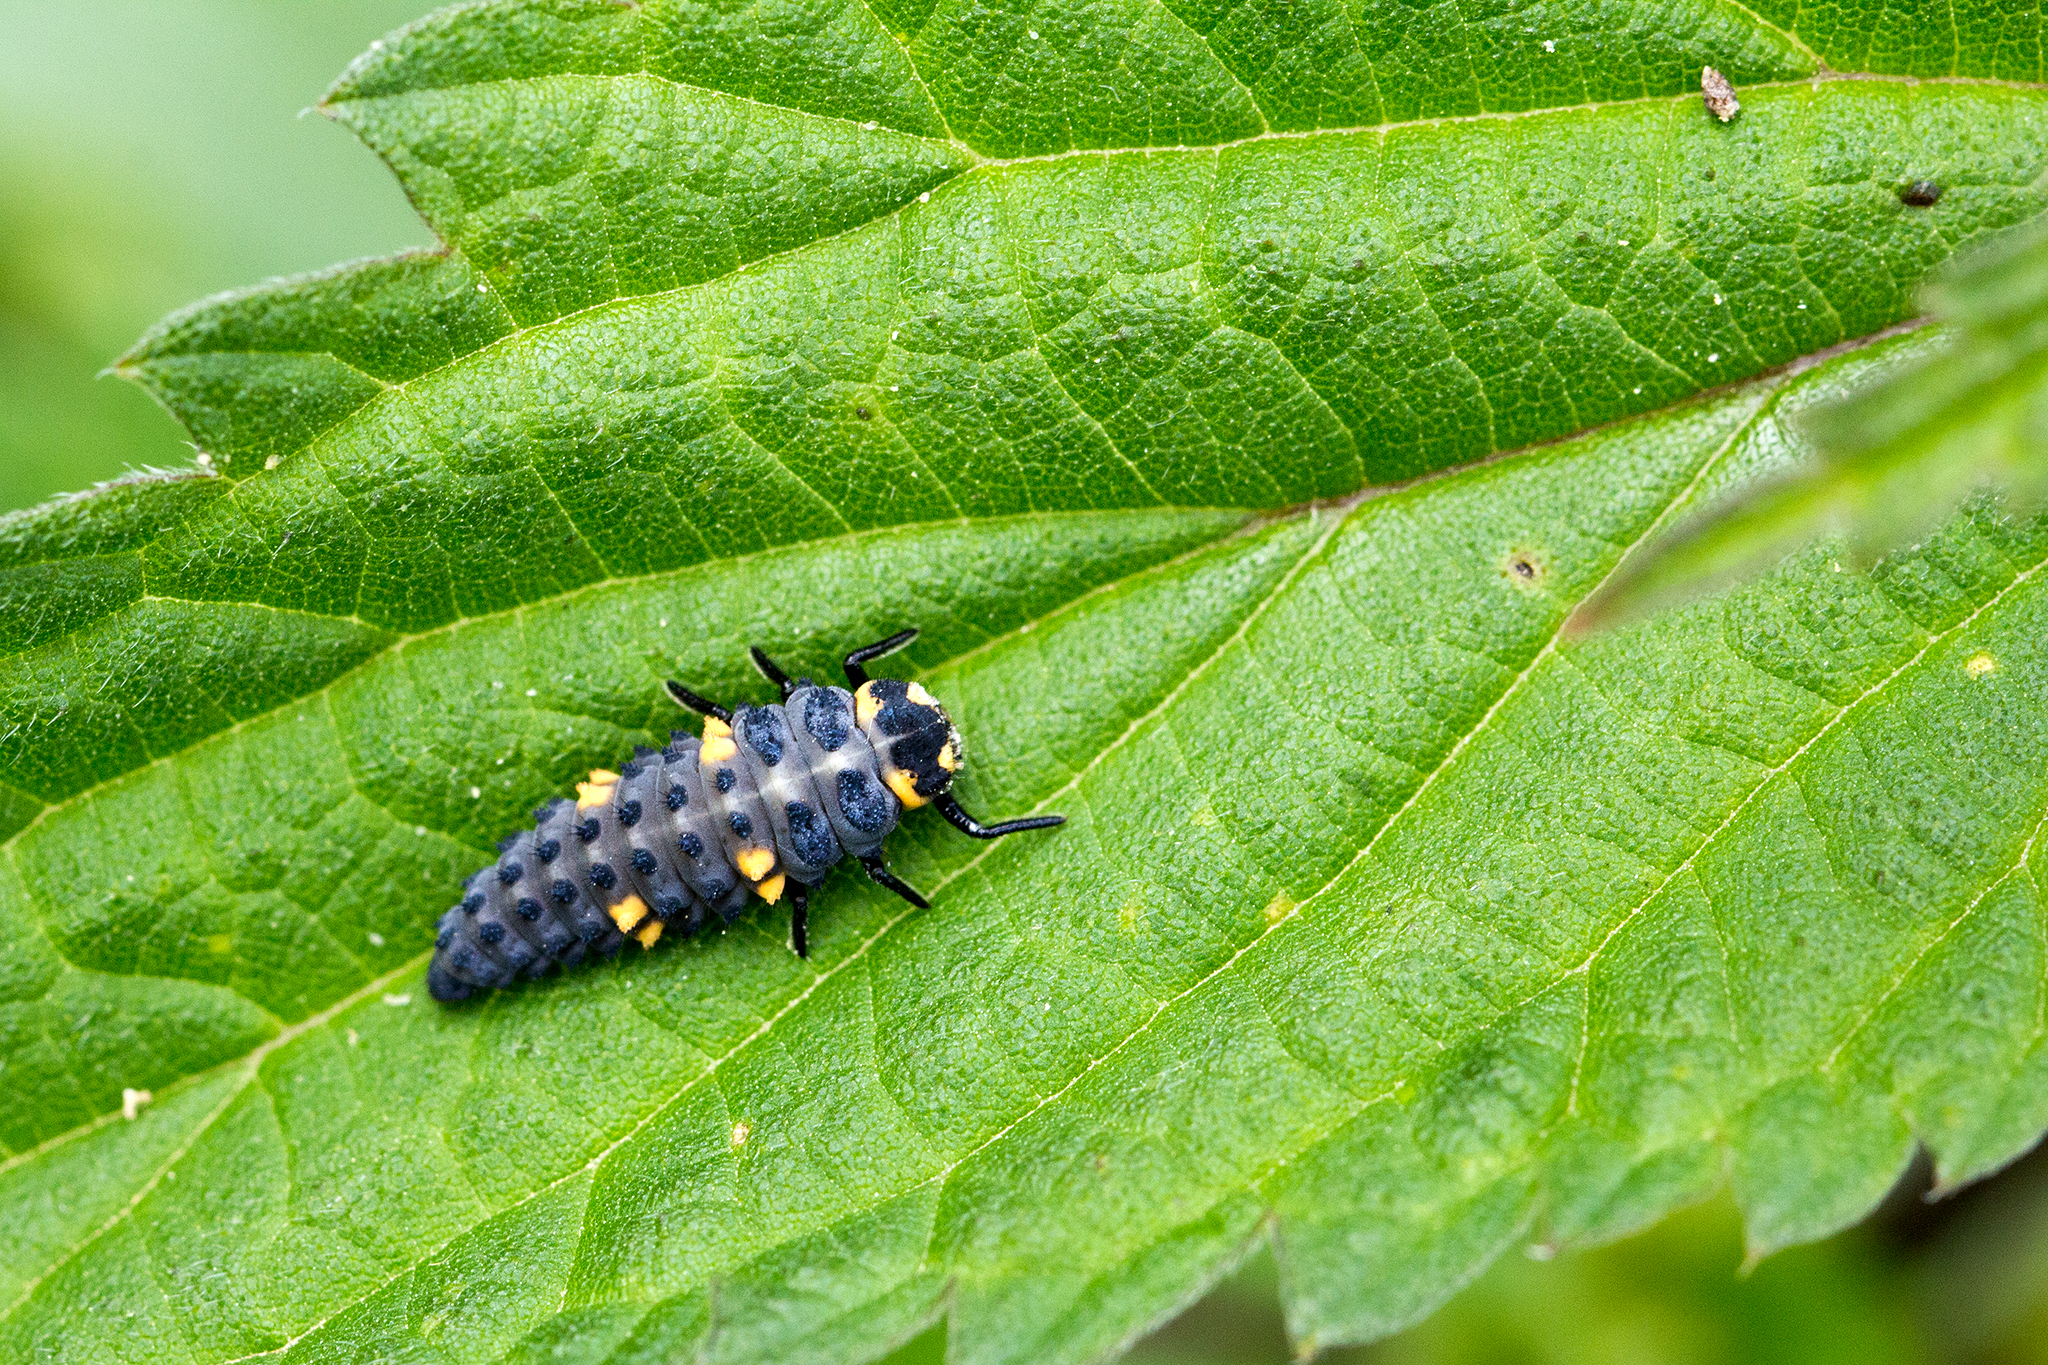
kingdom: Animalia
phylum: Arthropoda
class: Insecta
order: Coleoptera
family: Coccinellidae
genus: Coccinella
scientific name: Coccinella septempunctata
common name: Sevenspotted lady beetle
